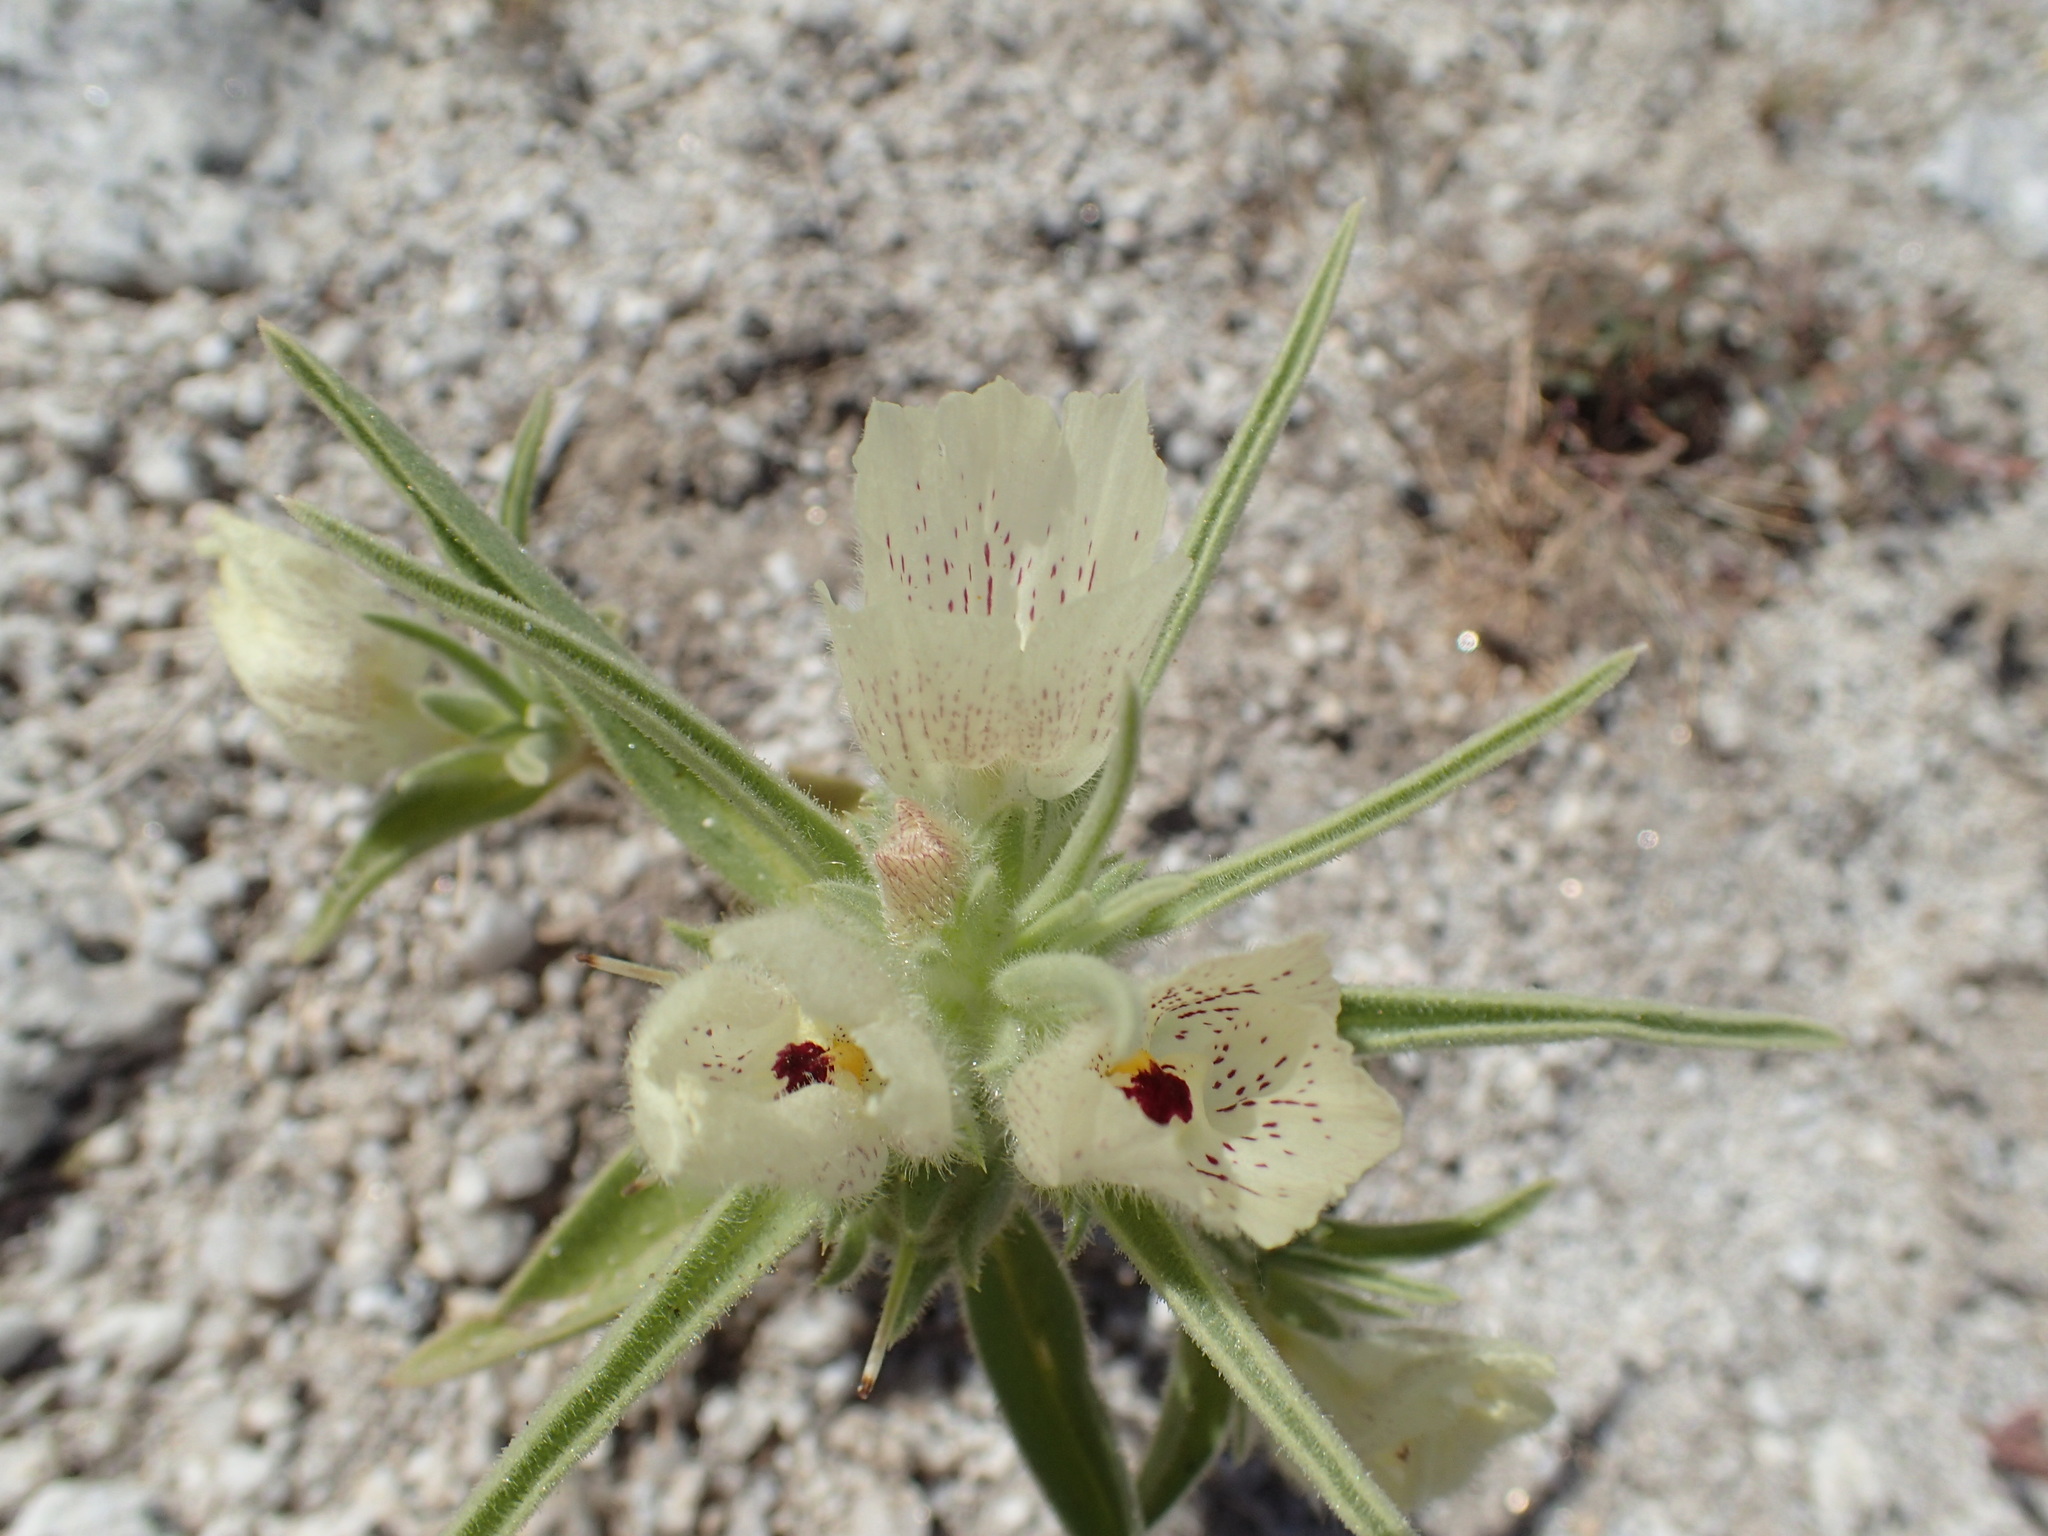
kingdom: Plantae
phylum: Tracheophyta
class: Magnoliopsida
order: Lamiales
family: Plantaginaceae
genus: Mohavea
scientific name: Mohavea confertiflora
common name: Ghost flower
